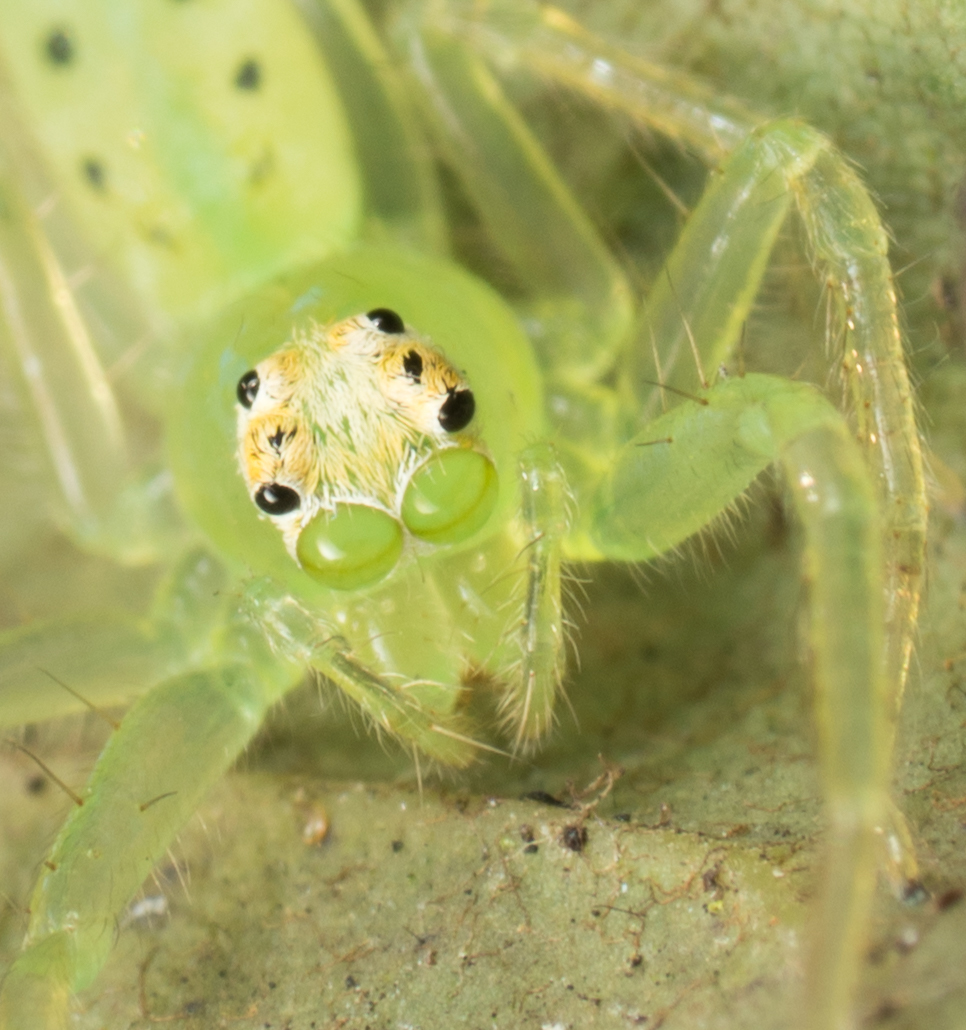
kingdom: Animalia
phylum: Arthropoda
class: Arachnida
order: Araneae
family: Salticidae
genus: Lyssomanes
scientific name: Lyssomanes viridis
